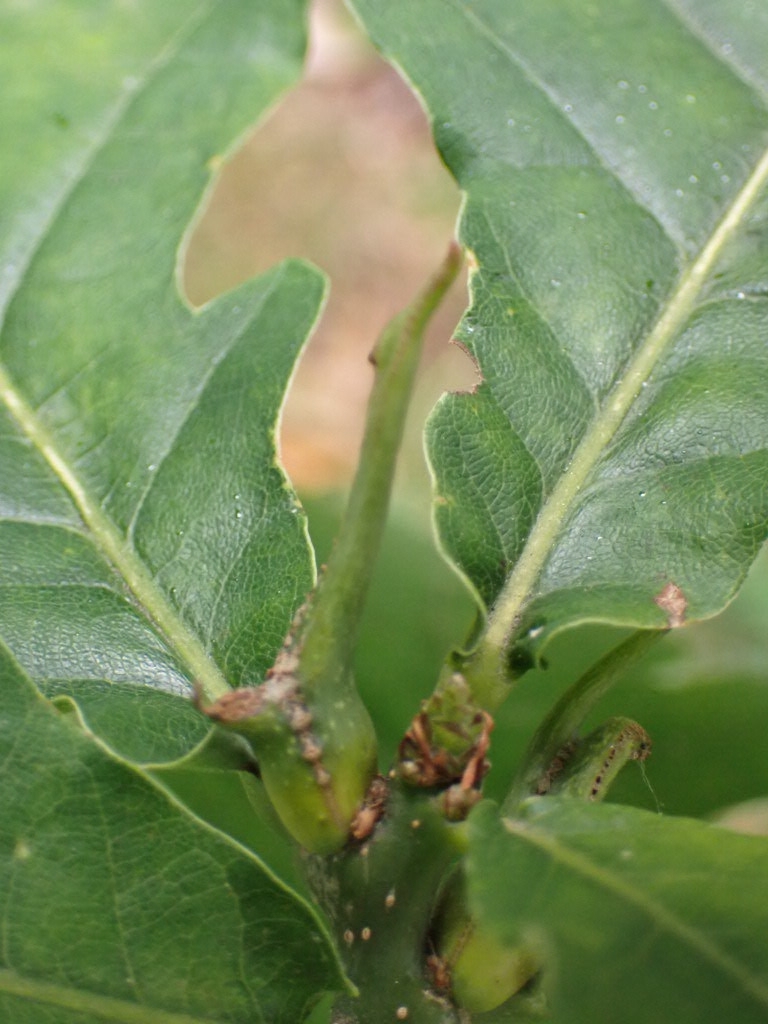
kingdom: Animalia
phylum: Arthropoda
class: Insecta
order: Hymenoptera
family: Cynipidae
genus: Andricus
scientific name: Andricus aries
